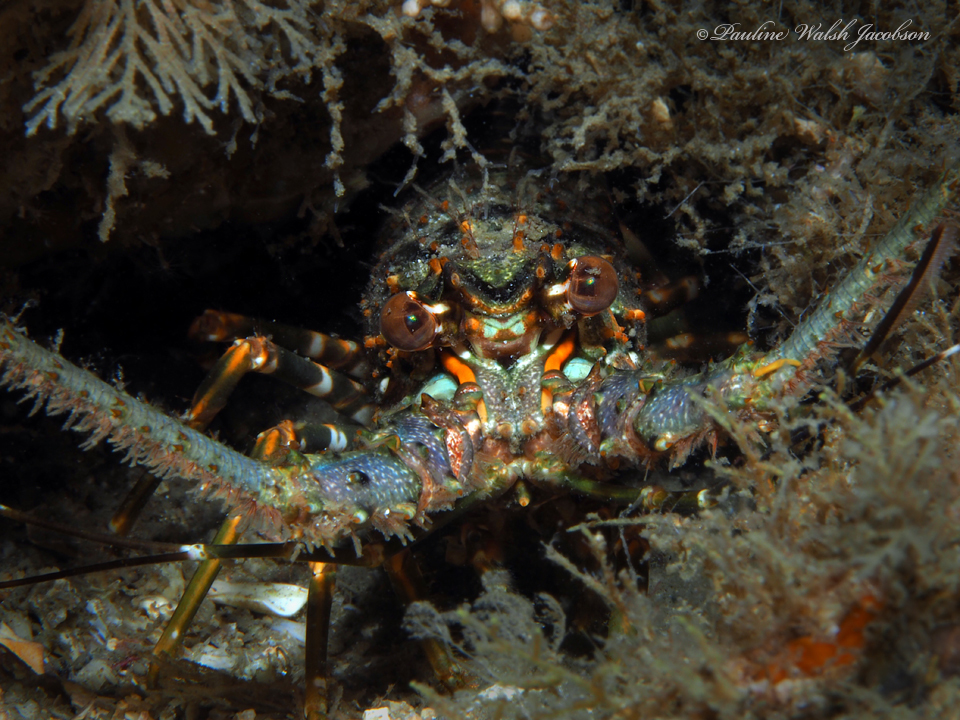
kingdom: Animalia
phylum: Arthropoda
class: Malacostraca
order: Decapoda
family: Palinuridae
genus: Panulirus
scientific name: Panulirus argus
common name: Caribbean spiny lobster
